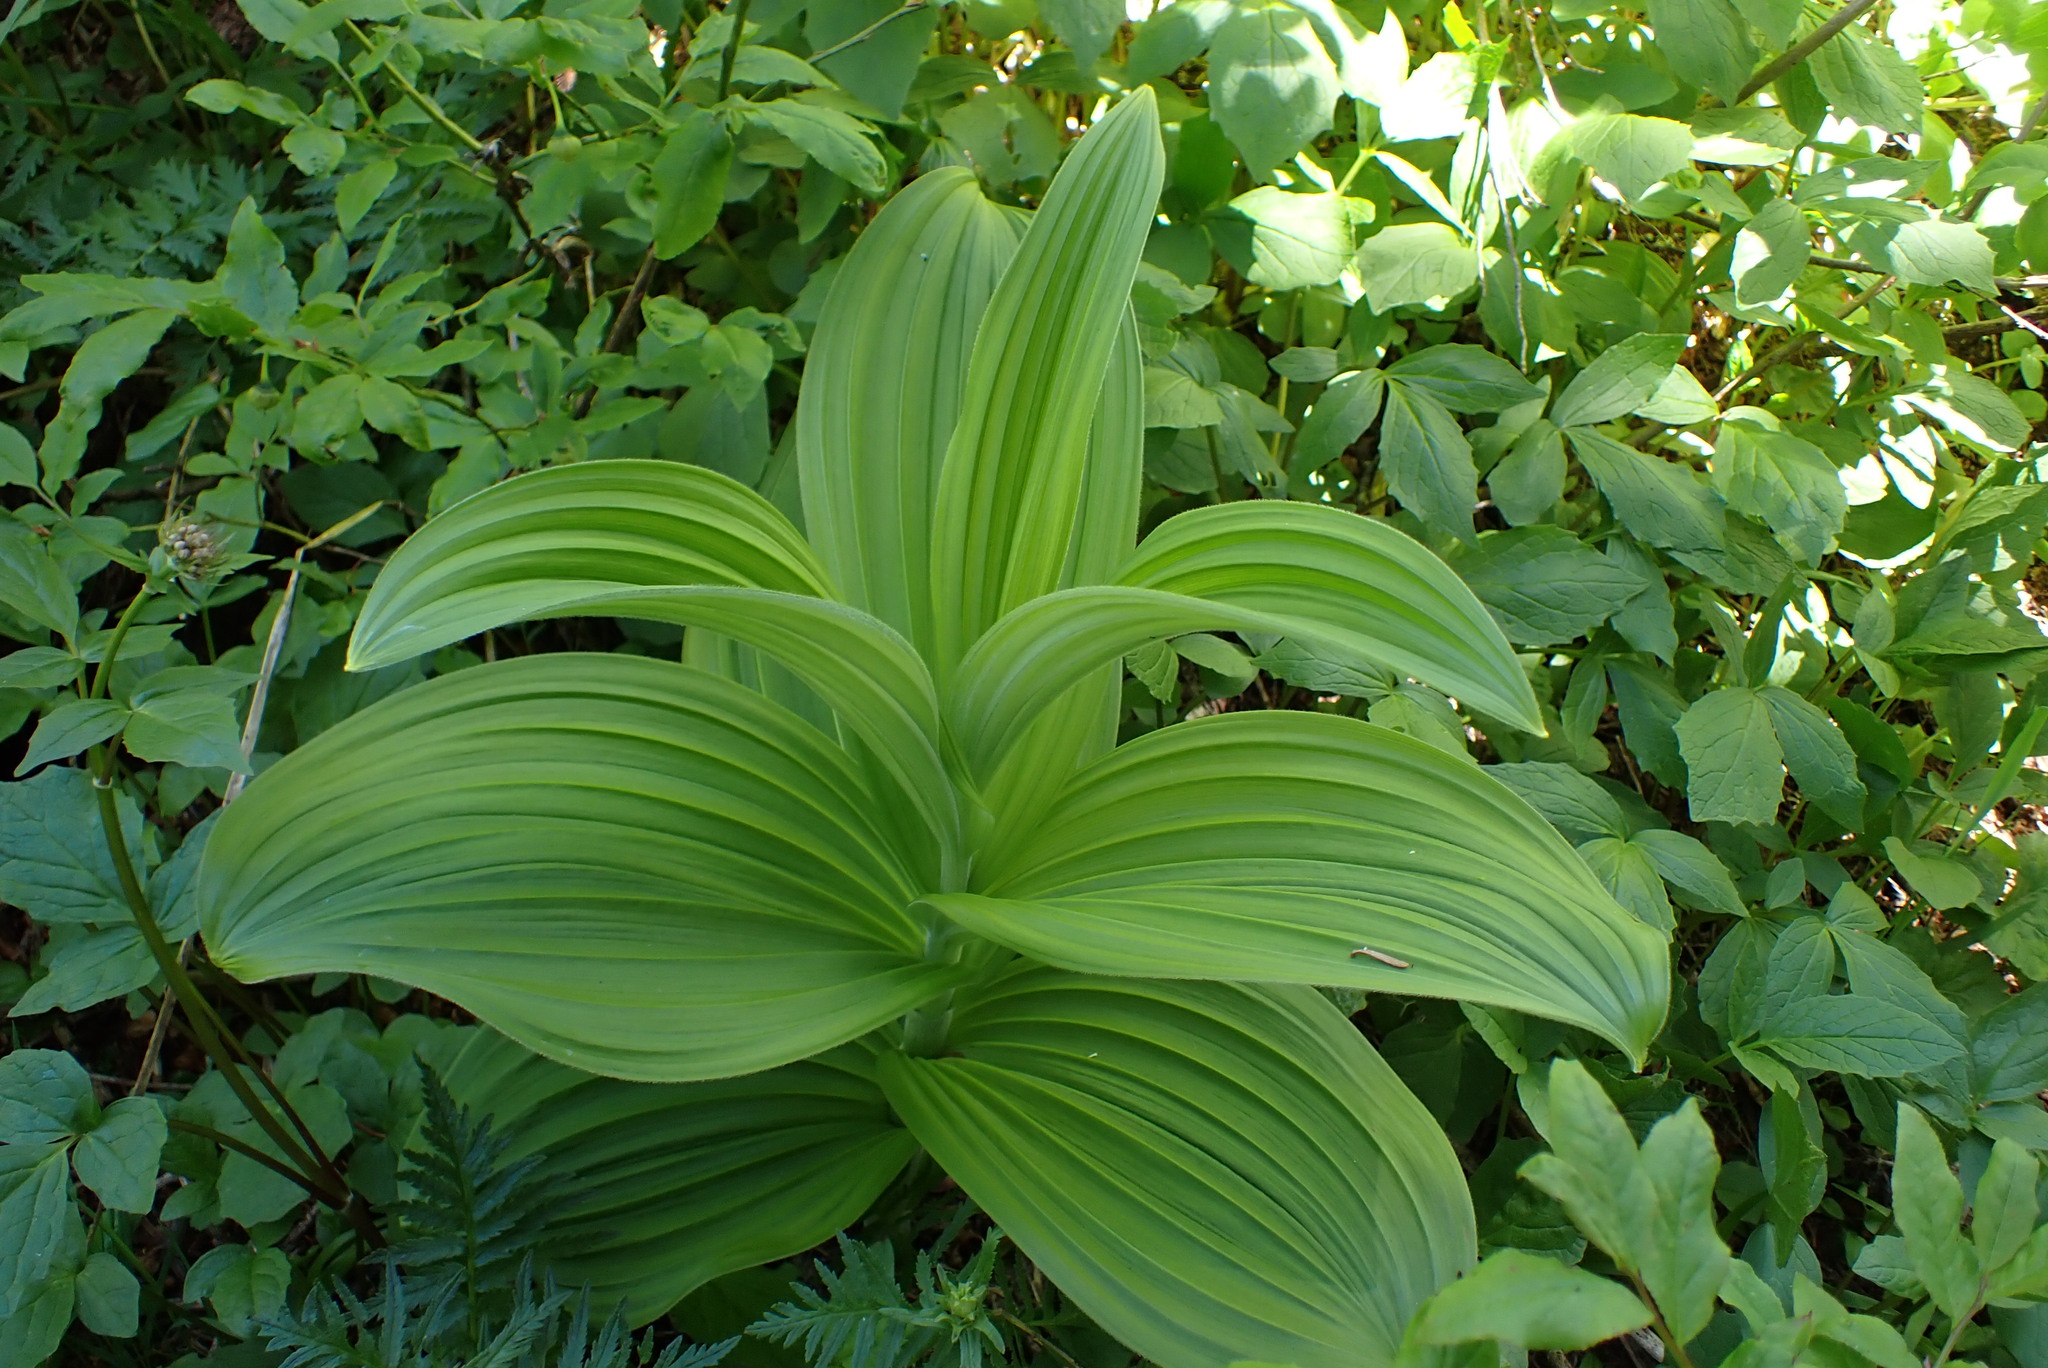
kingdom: Plantae
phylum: Tracheophyta
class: Liliopsida
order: Liliales
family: Melanthiaceae
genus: Veratrum
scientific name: Veratrum viride
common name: American false hellebore
